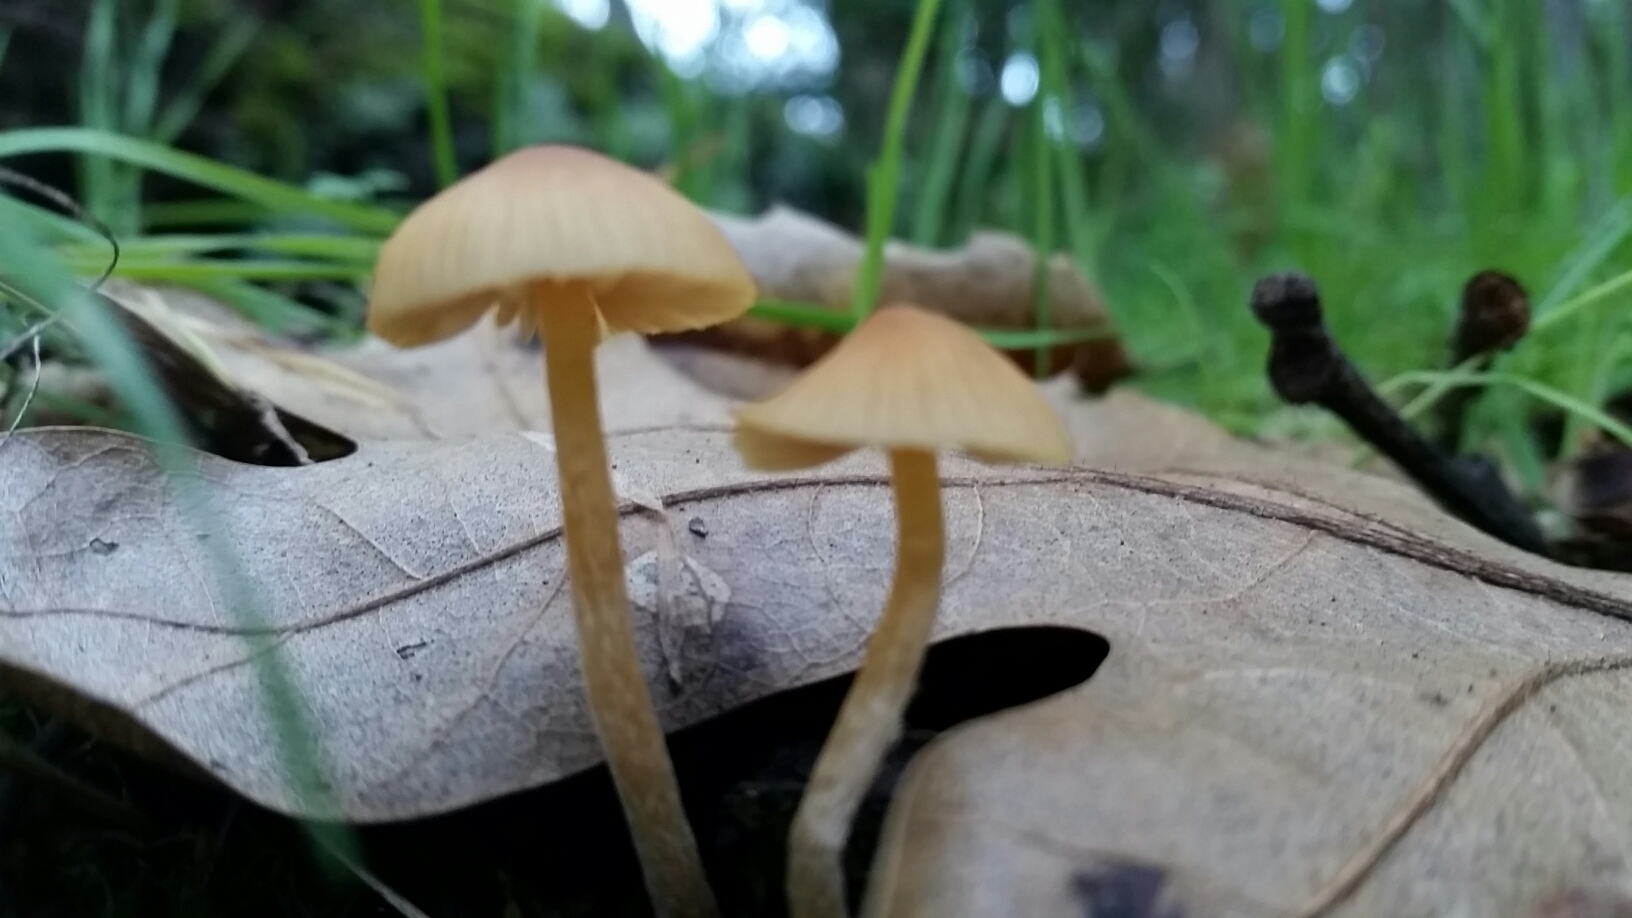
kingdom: Fungi
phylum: Basidiomycota
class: Agaricomycetes
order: Agaricales
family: Hymenogastraceae
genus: Galerina
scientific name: Galerina semilanceata
